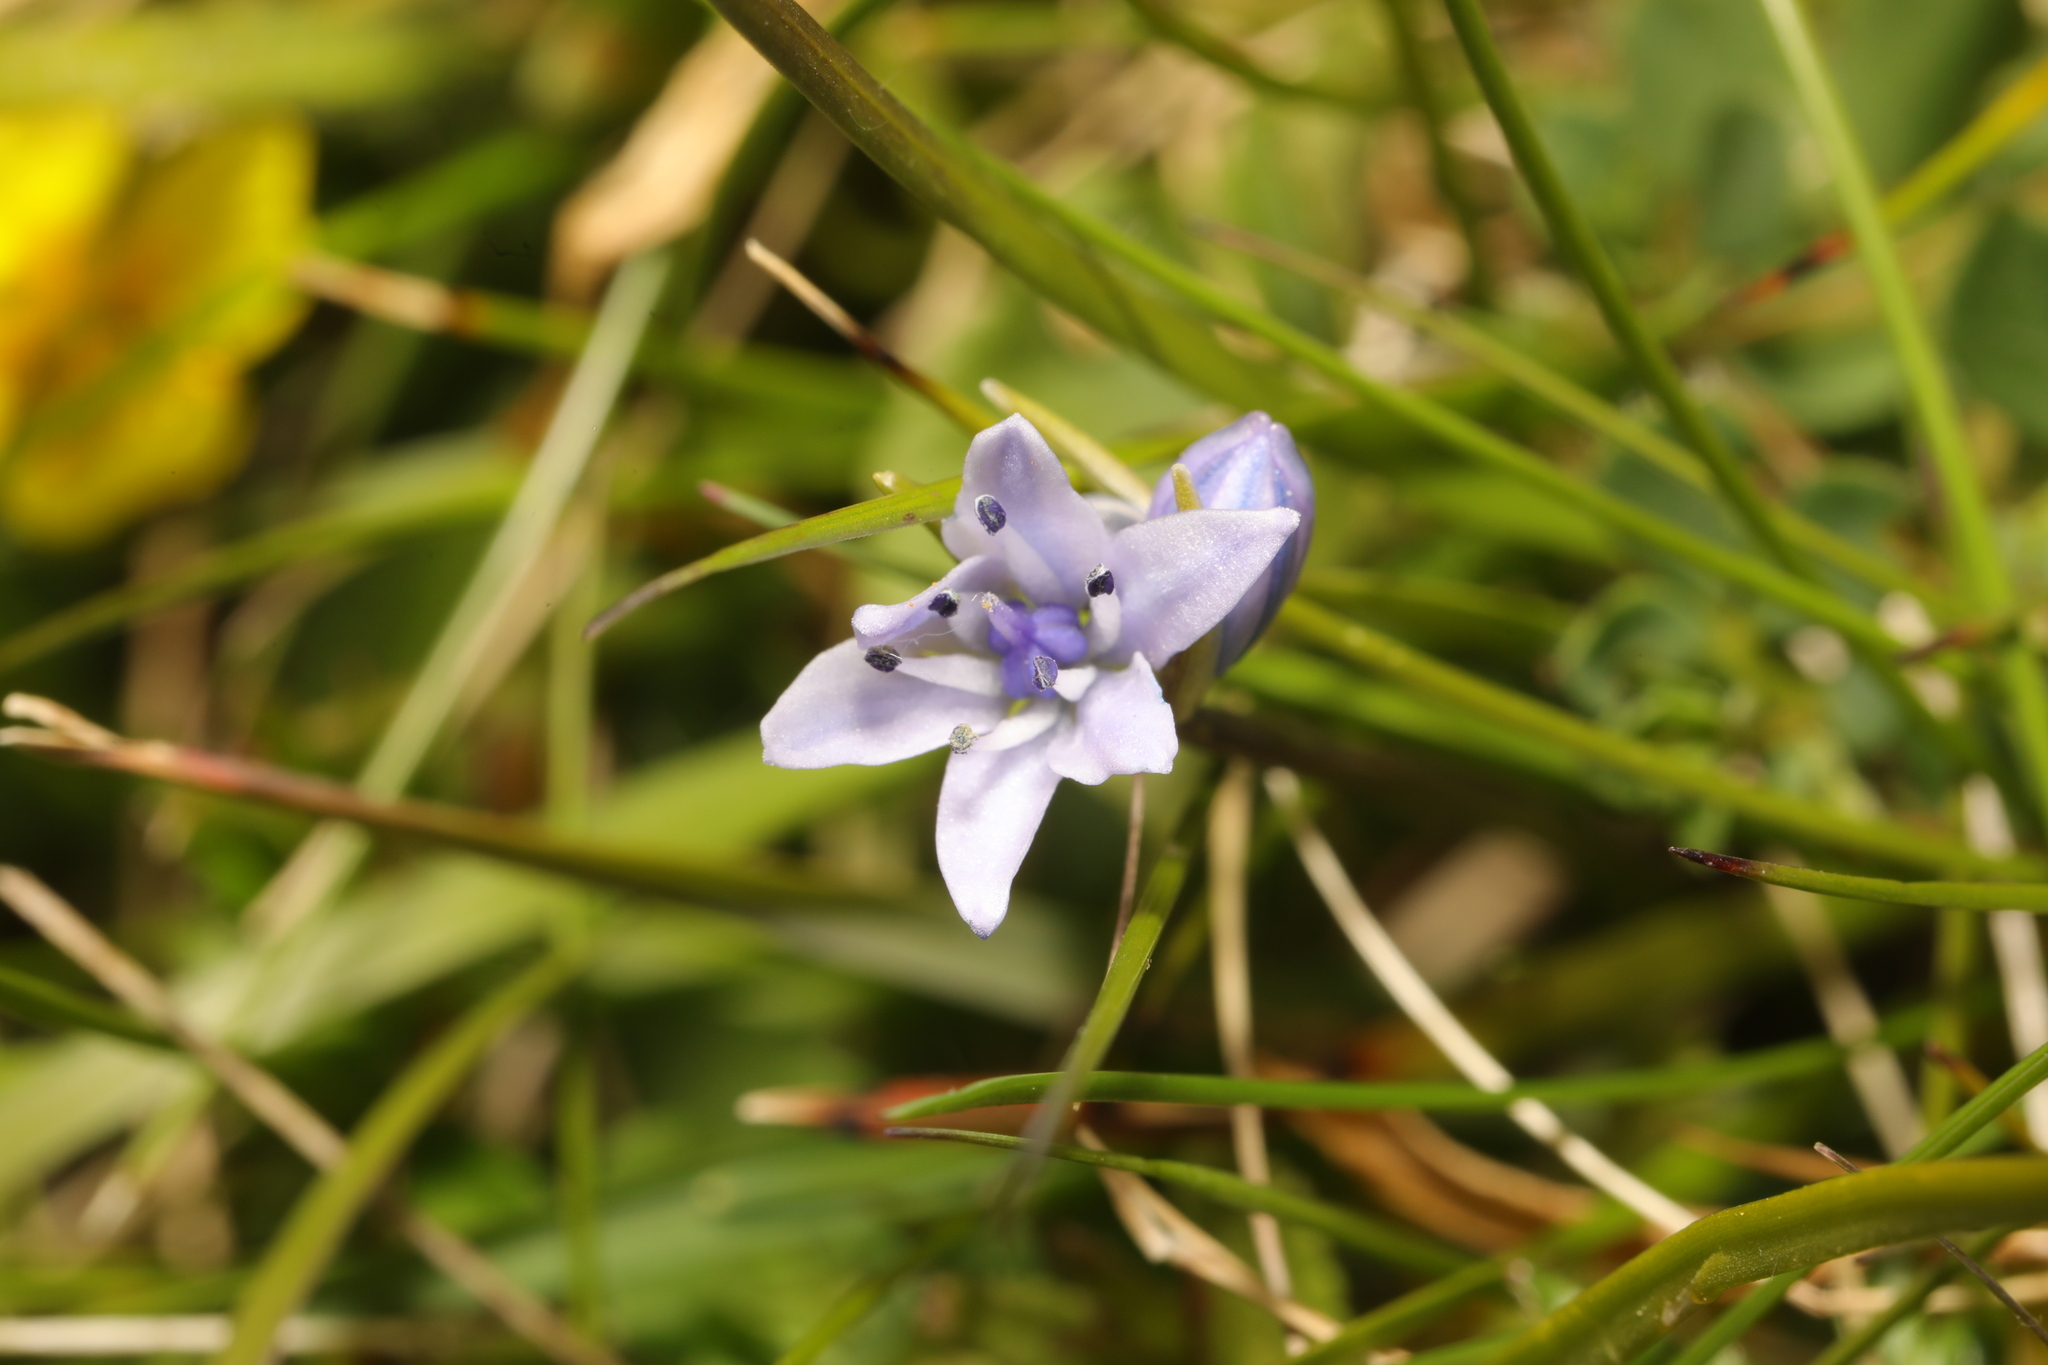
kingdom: Plantae
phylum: Tracheophyta
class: Liliopsida
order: Asparagales
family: Asparagaceae
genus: Scilla
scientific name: Scilla verna
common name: Spring squill
